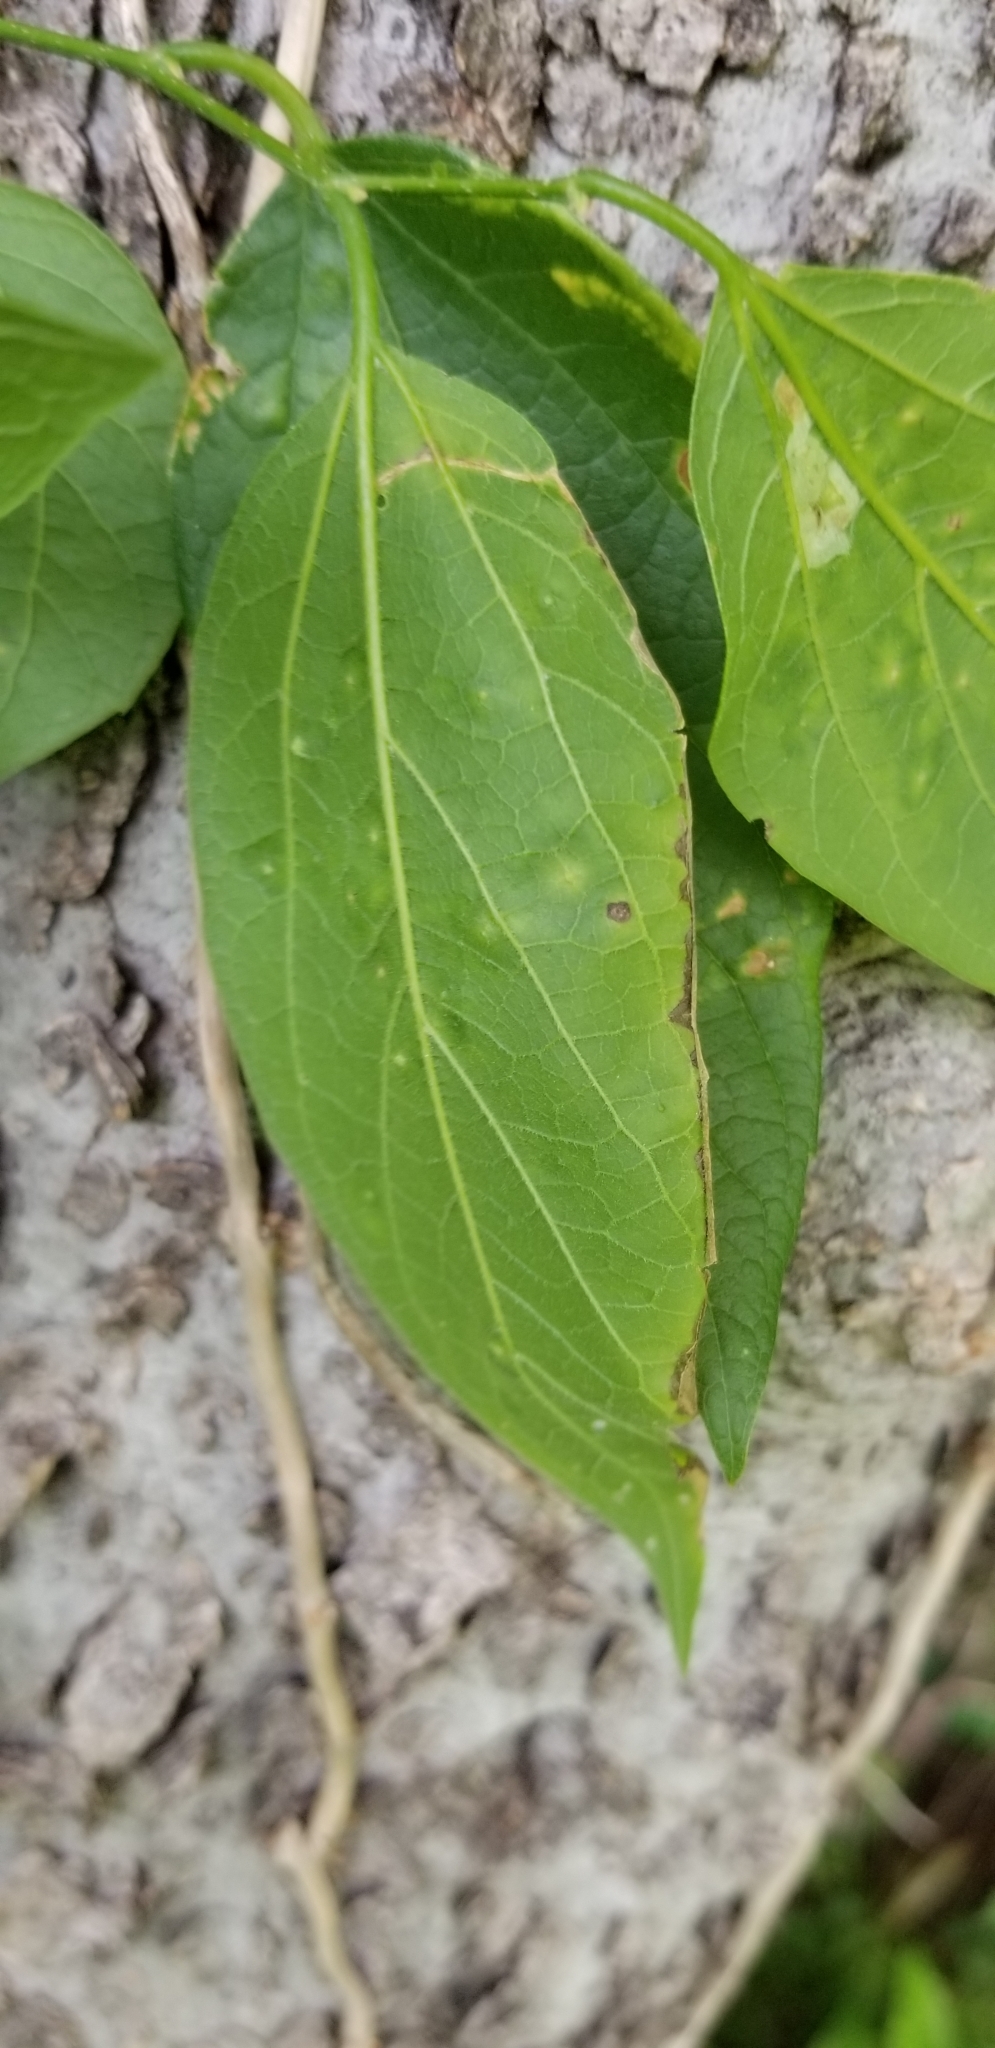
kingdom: Plantae
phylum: Tracheophyta
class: Magnoliopsida
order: Rosales
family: Cannabaceae
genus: Celtis
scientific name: Celtis laevigata
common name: Sugarberry
